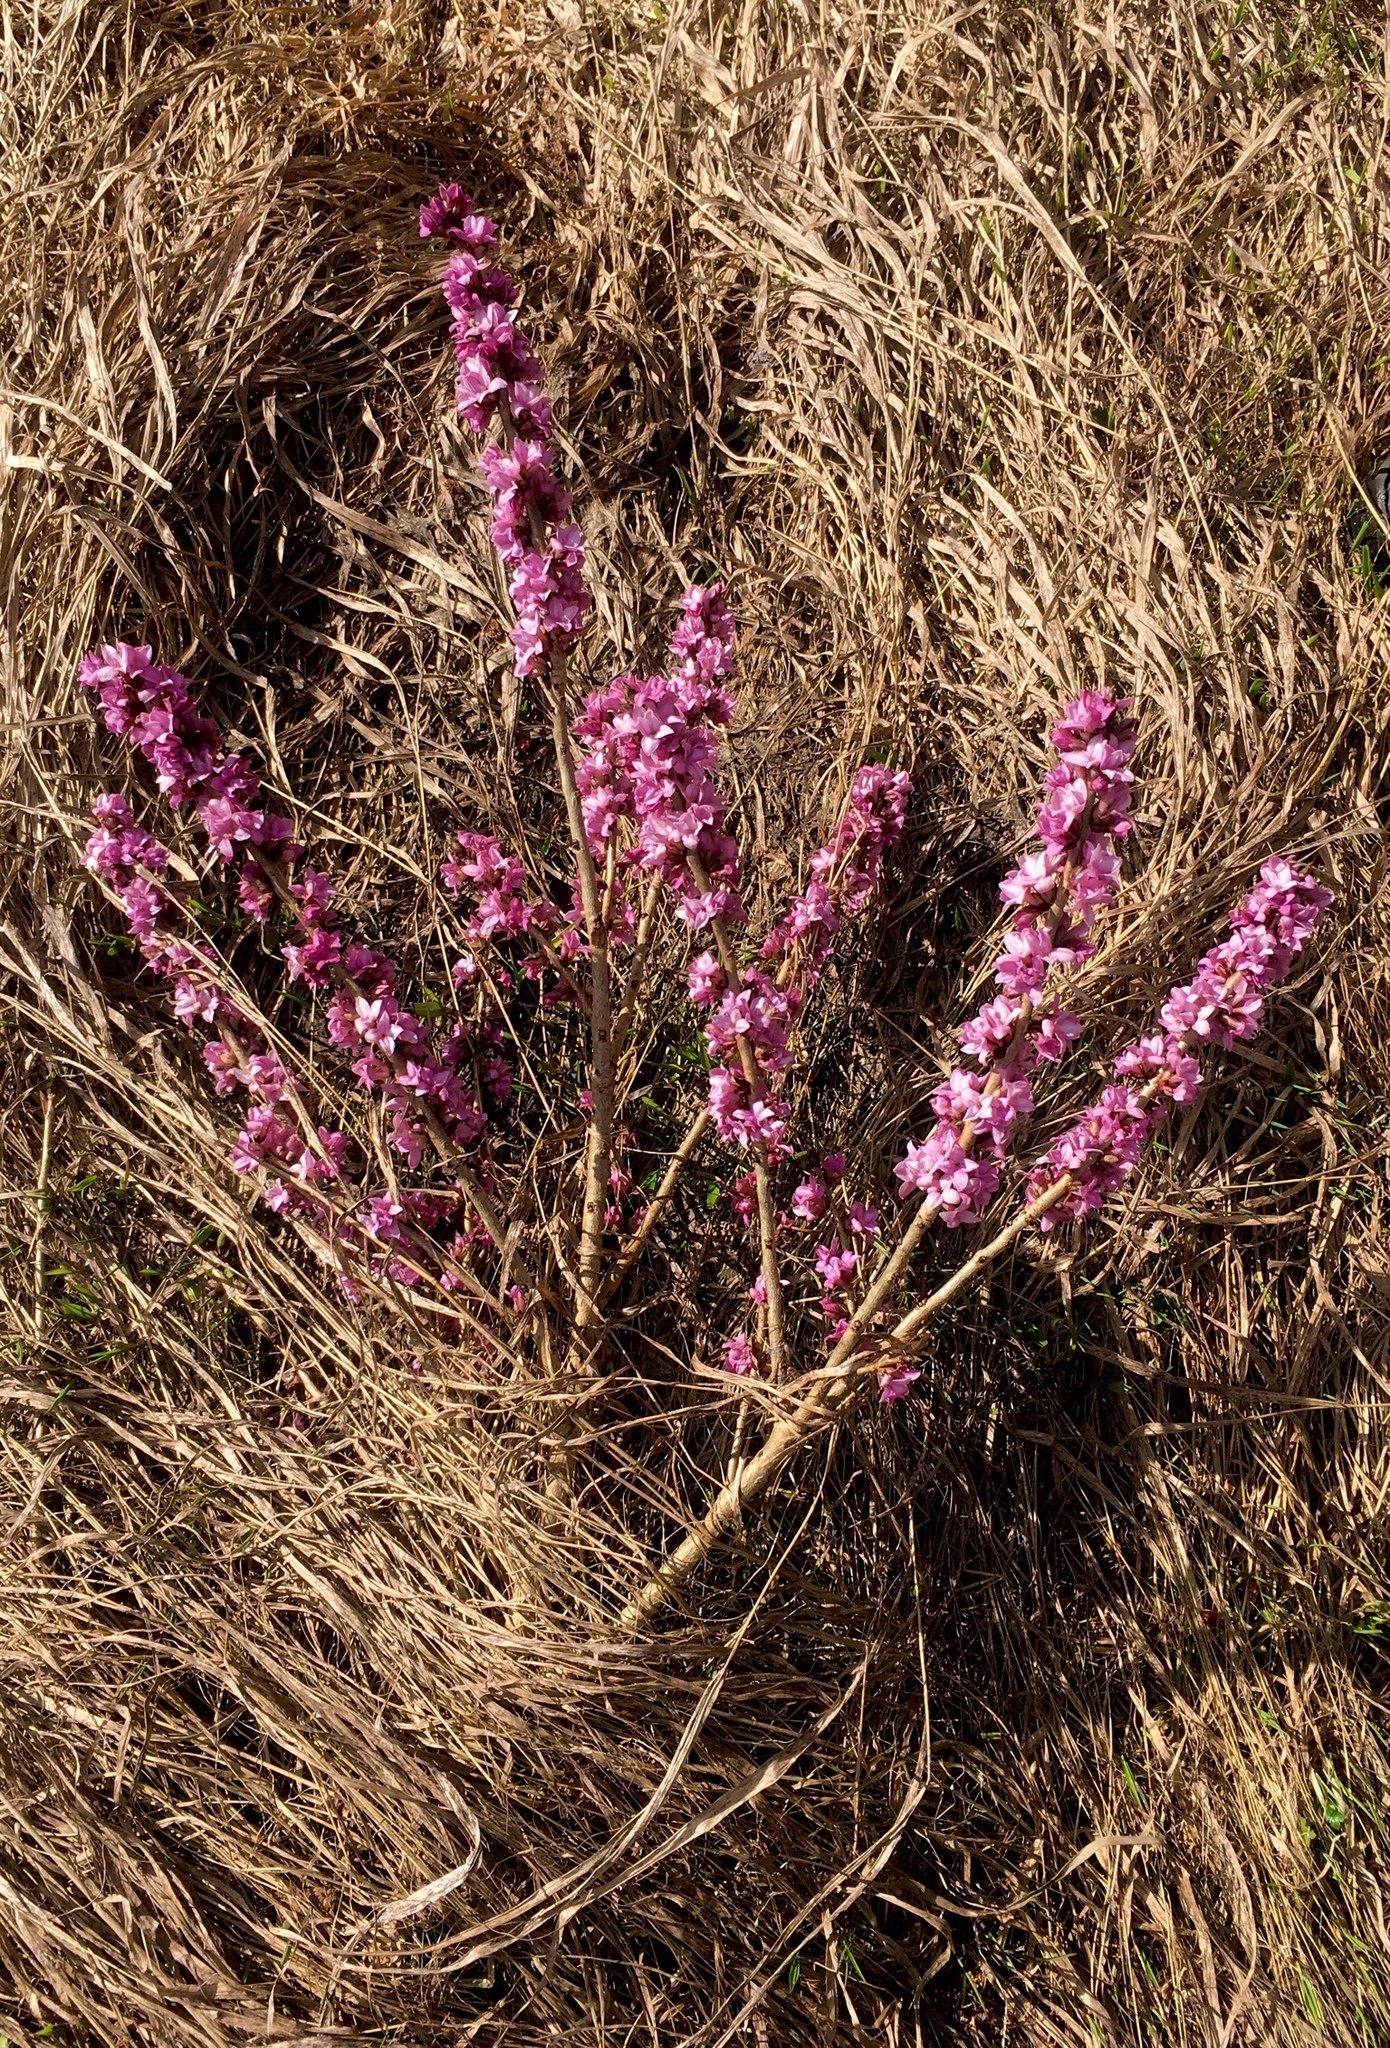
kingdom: Plantae
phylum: Tracheophyta
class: Magnoliopsida
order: Malvales
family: Thymelaeaceae
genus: Daphne
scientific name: Daphne mezereum
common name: Mezereon
